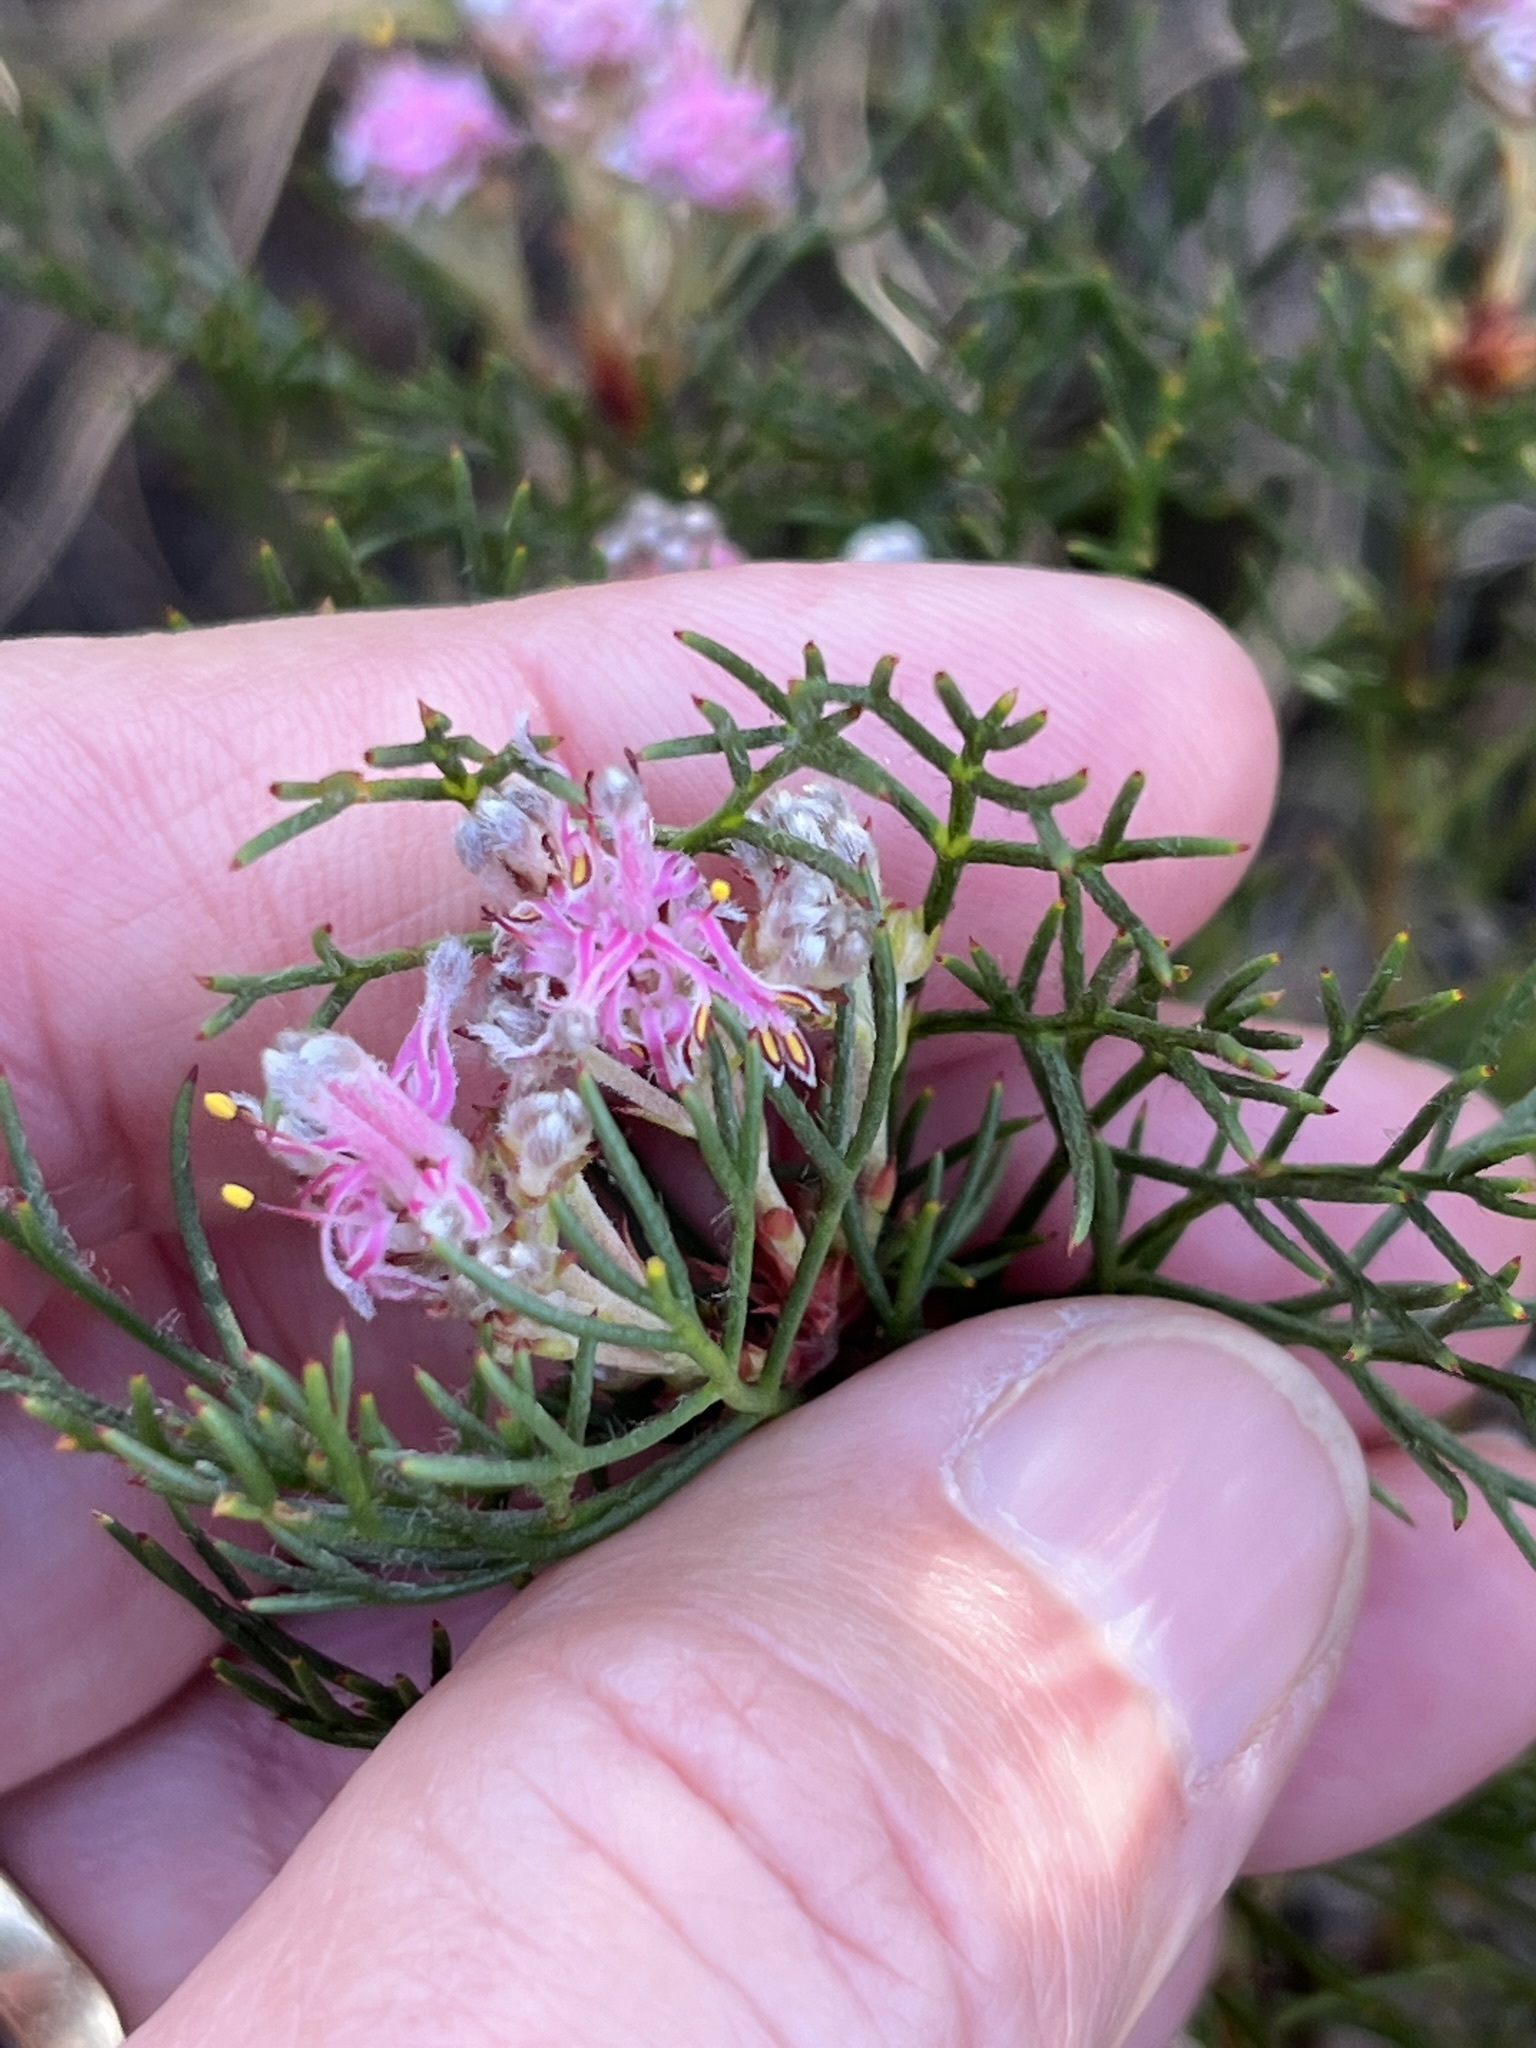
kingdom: Plantae
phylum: Tracheophyta
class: Magnoliopsida
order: Proteales
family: Proteaceae
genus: Serruria
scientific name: Serruria fasciflora
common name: Common pin spiderhead
